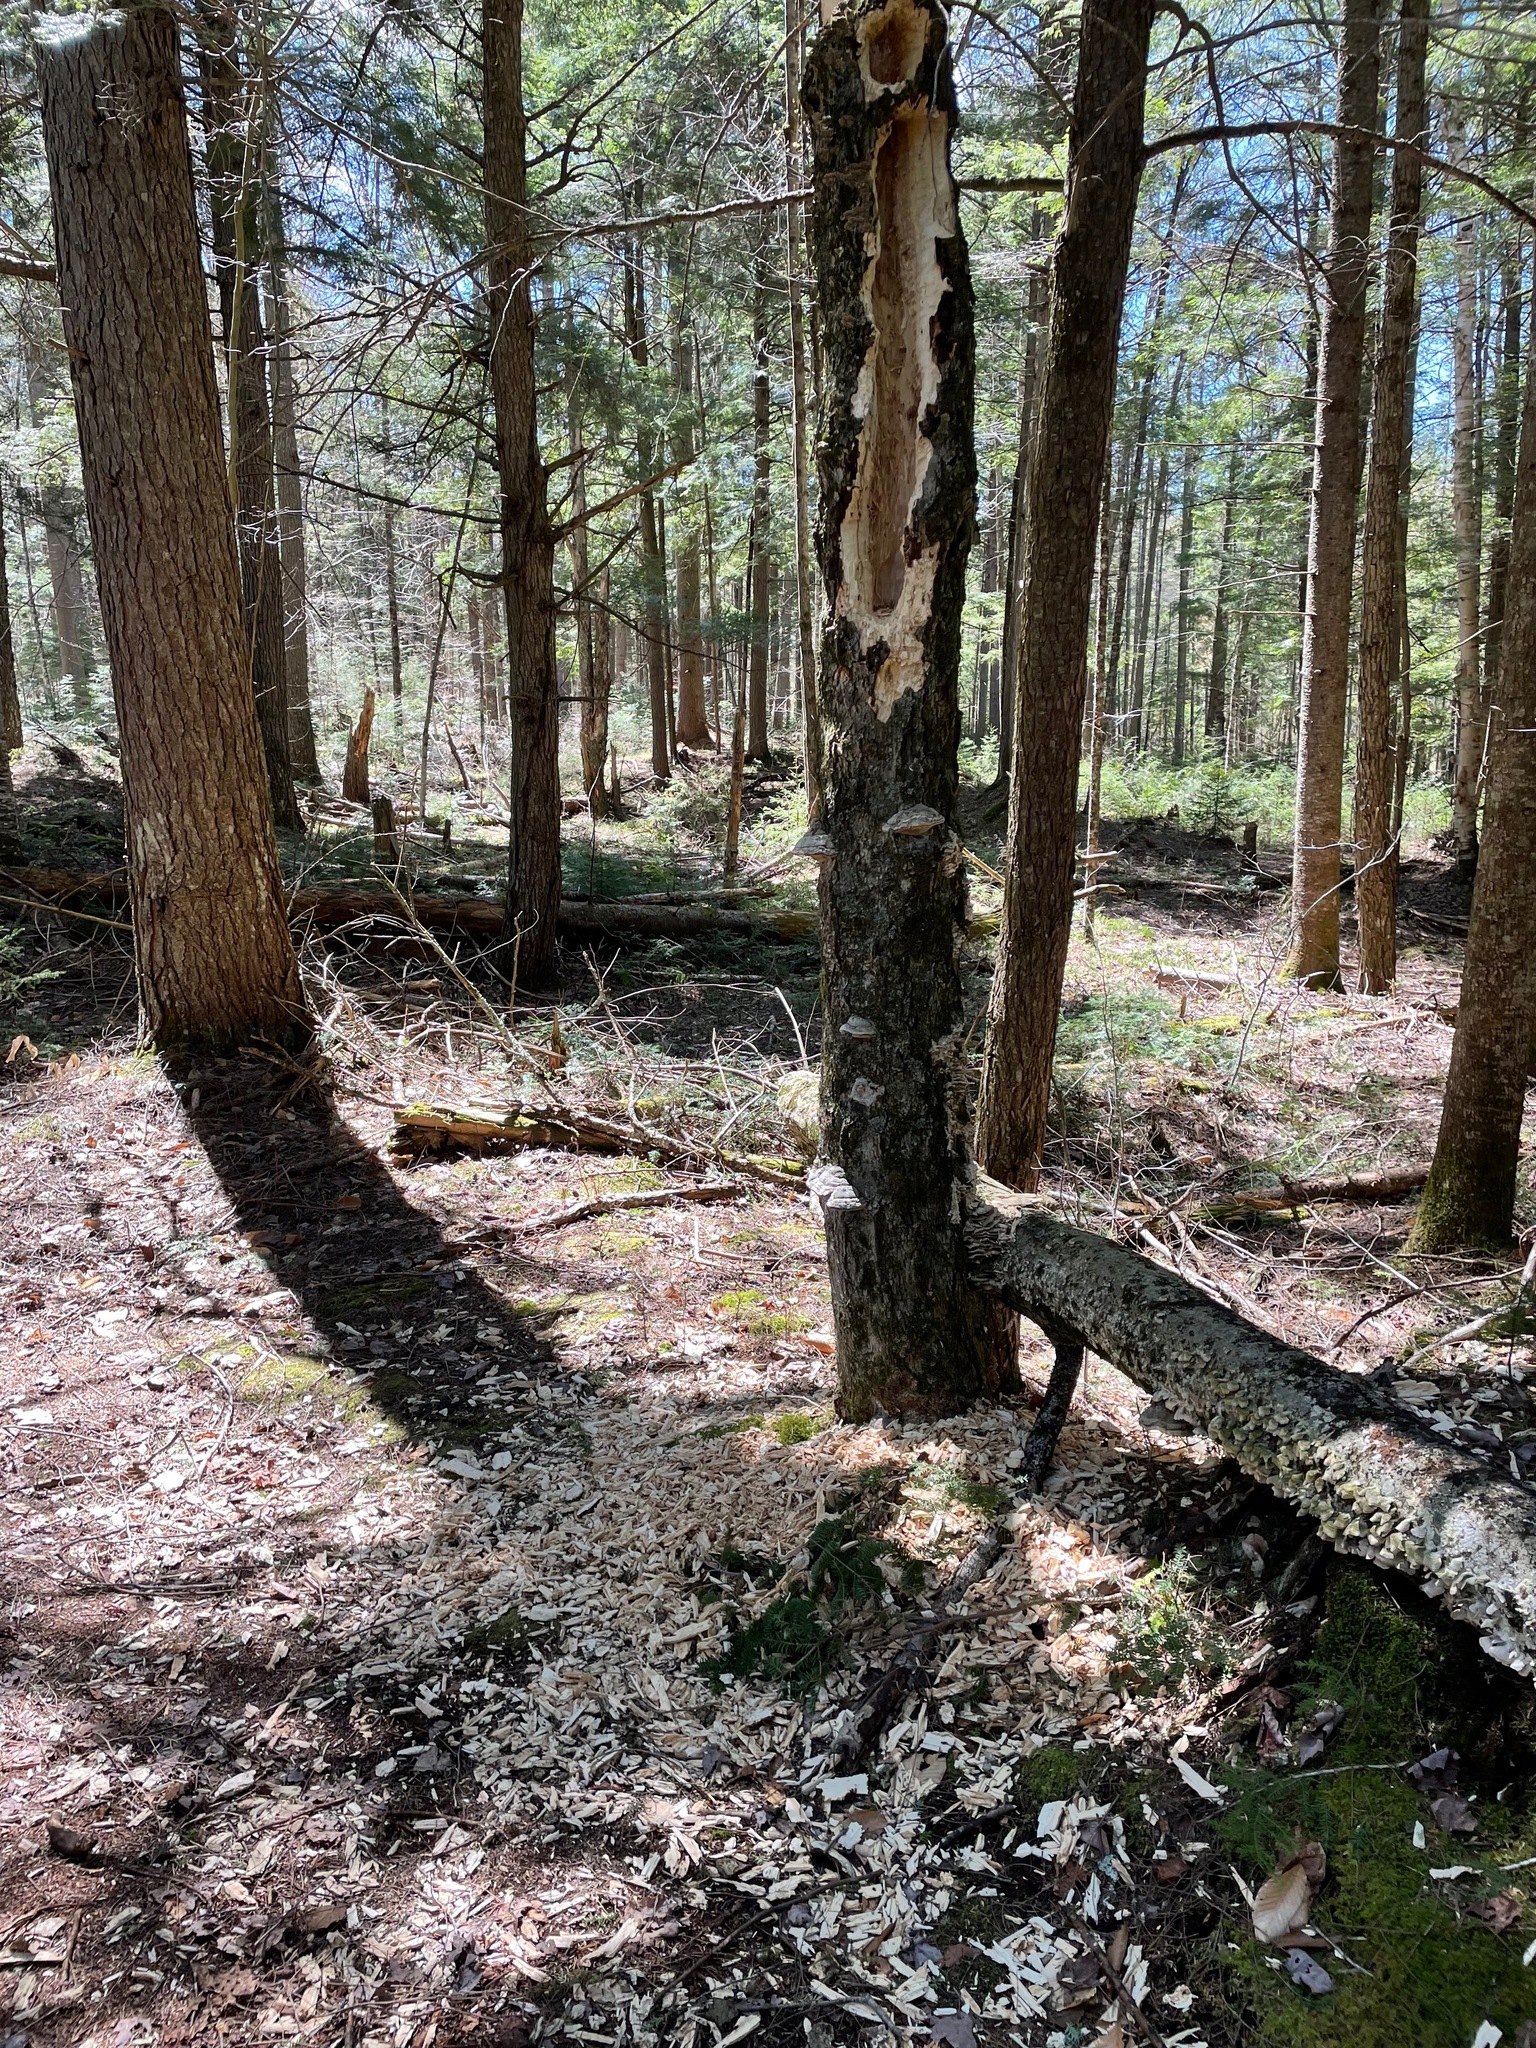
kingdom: Animalia
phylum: Chordata
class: Aves
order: Piciformes
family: Picidae
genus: Dryocopus
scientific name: Dryocopus pileatus
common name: Pileated woodpecker
